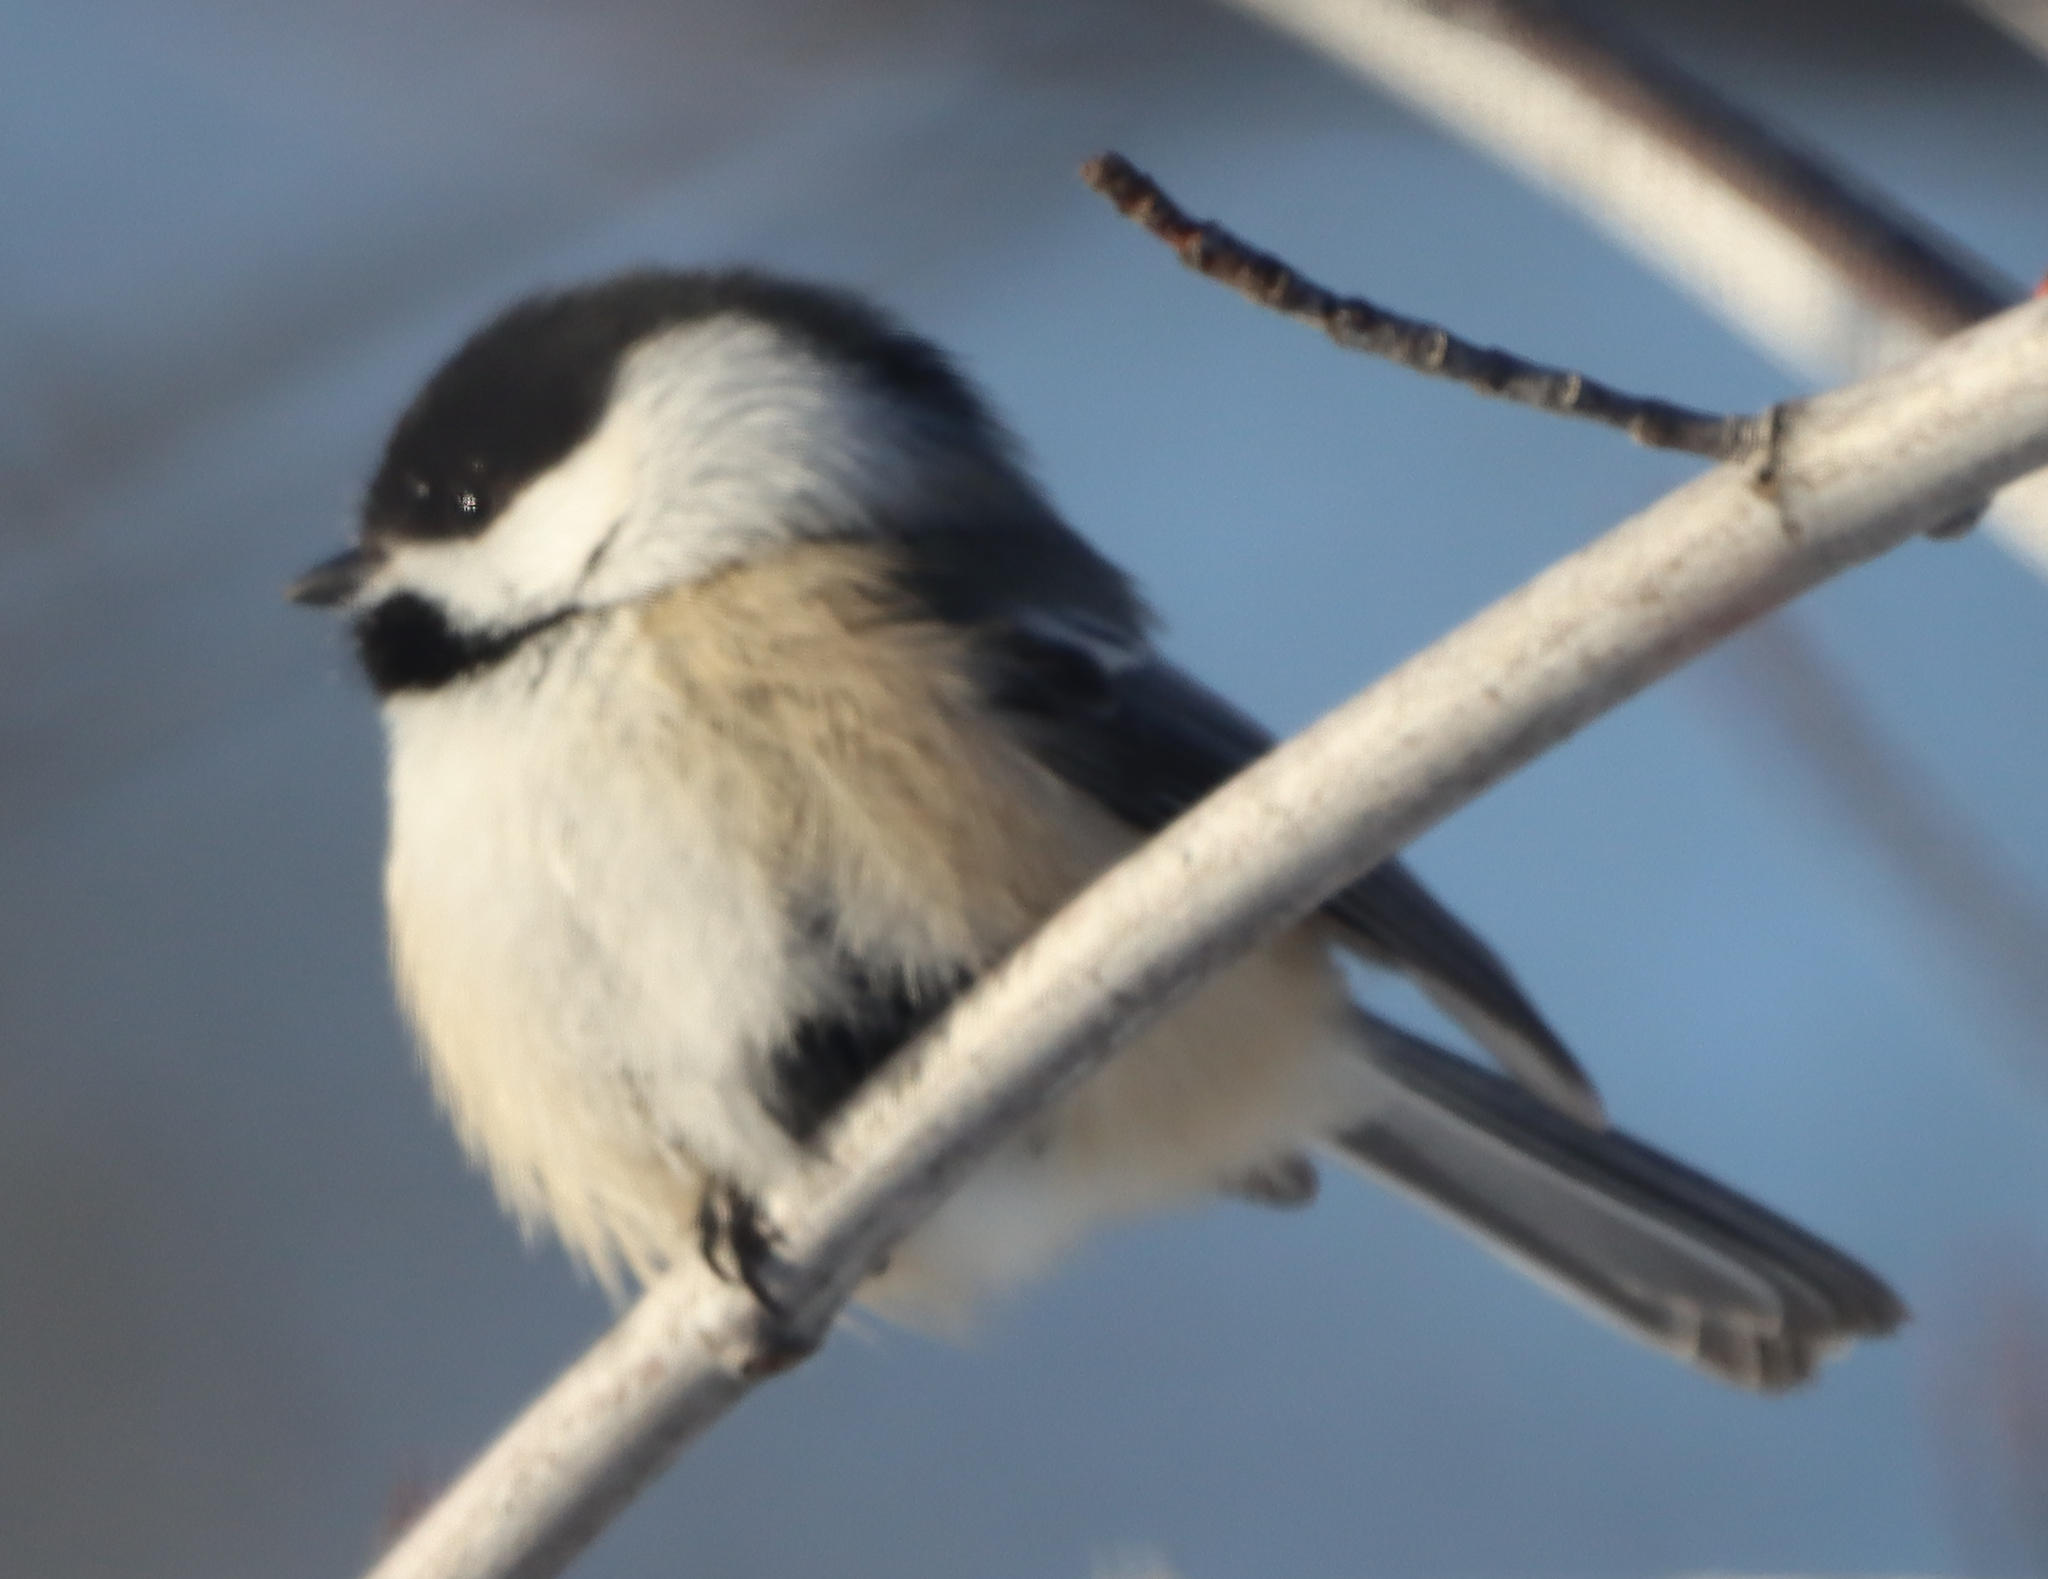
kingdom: Animalia
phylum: Chordata
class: Aves
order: Passeriformes
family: Paridae
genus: Poecile
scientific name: Poecile atricapillus
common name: Black-capped chickadee
